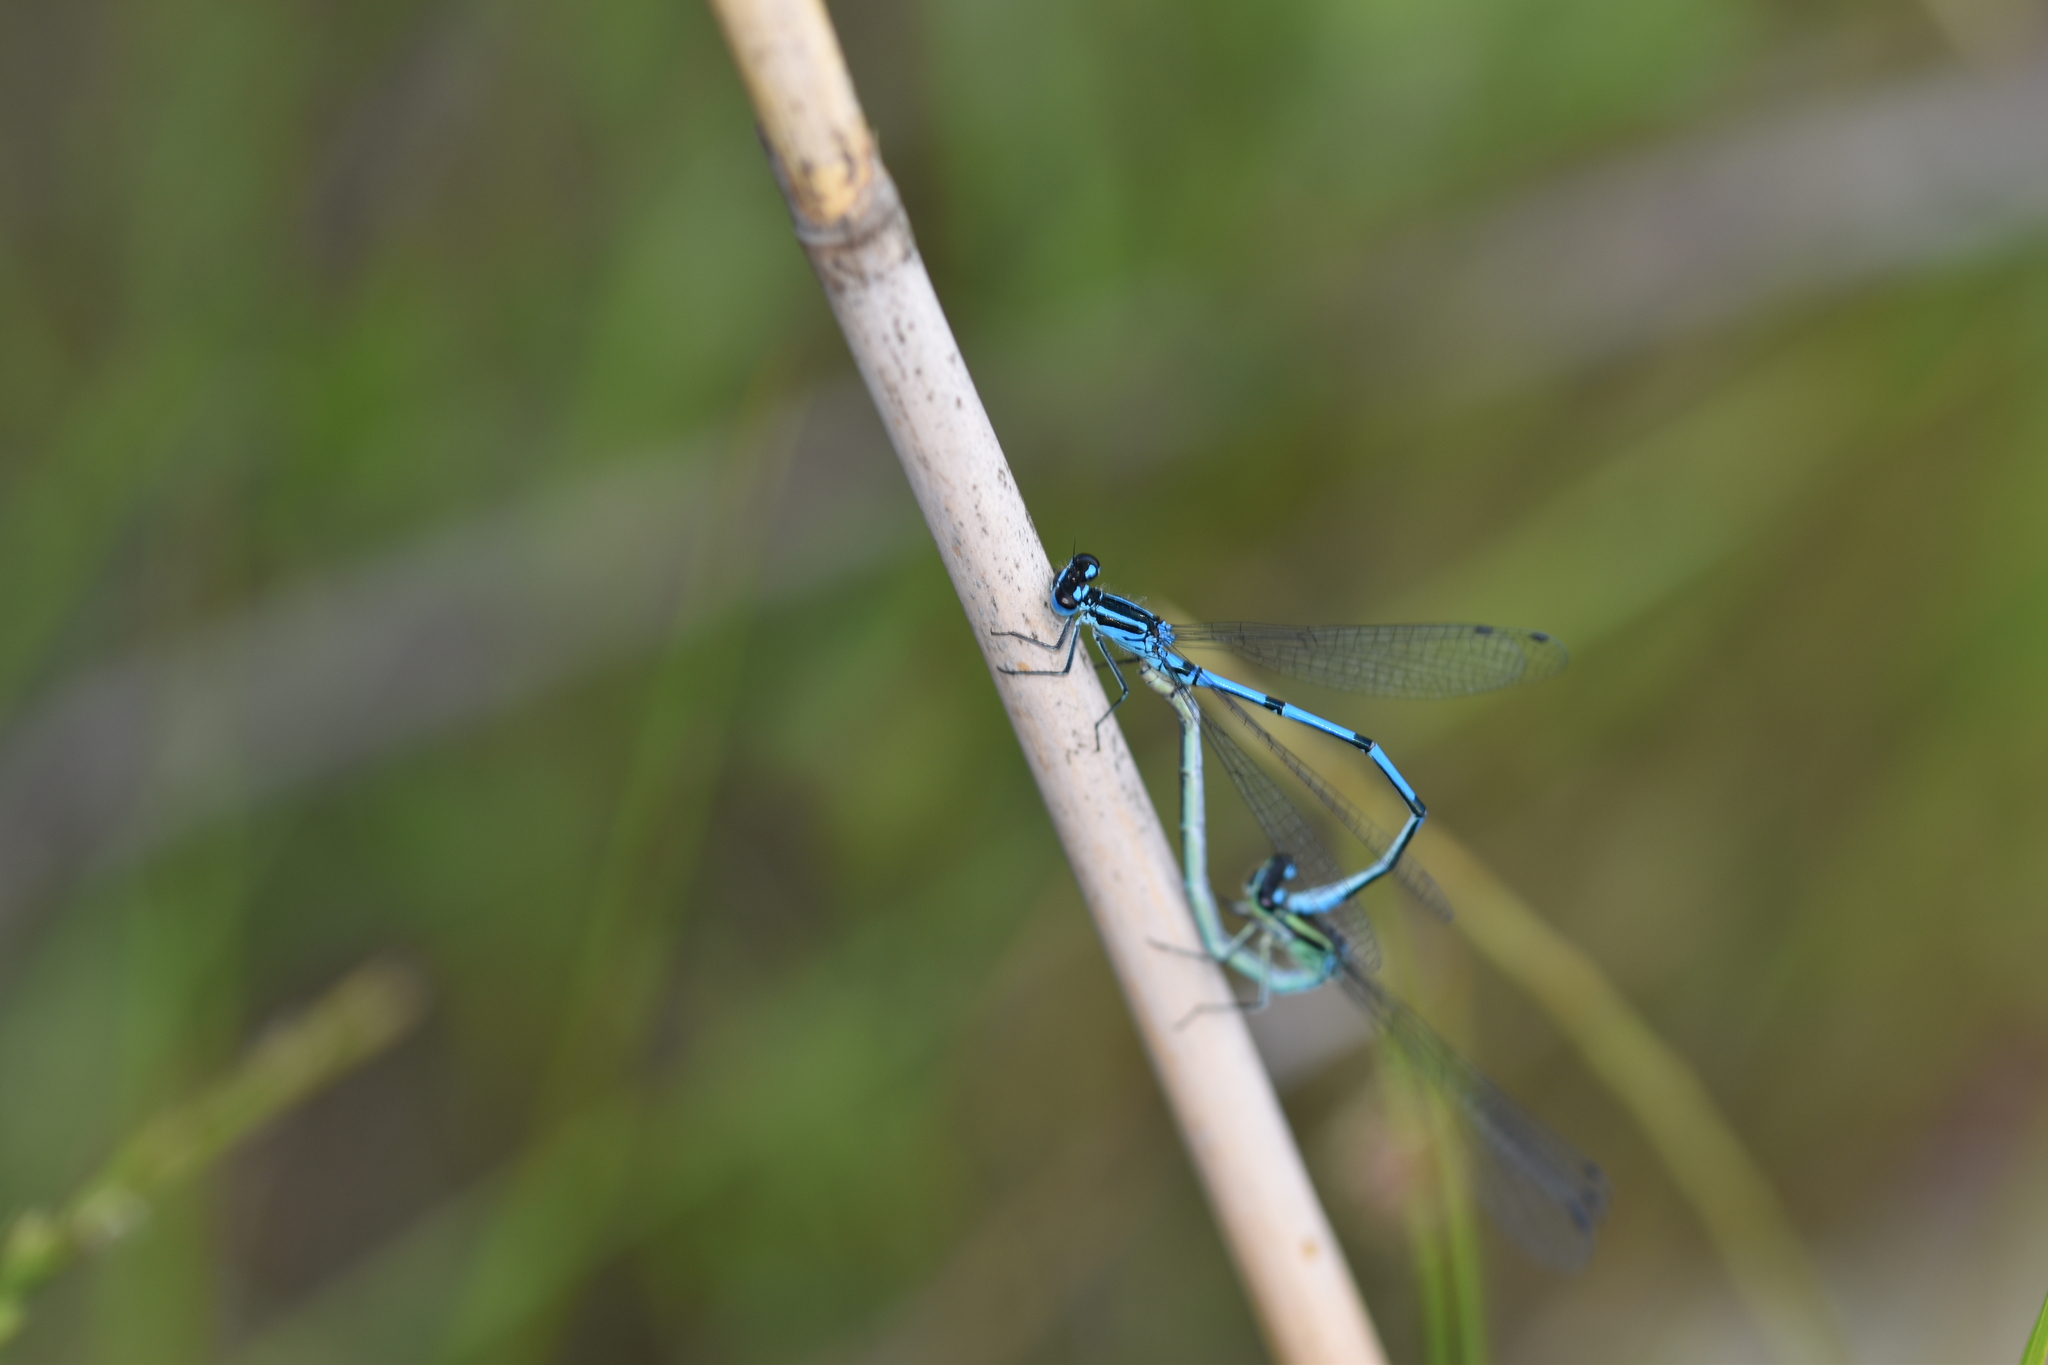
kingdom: Animalia
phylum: Arthropoda
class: Insecta
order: Odonata
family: Coenagrionidae
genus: Coenagrion
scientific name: Coenagrion puella
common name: Azure damselfly
